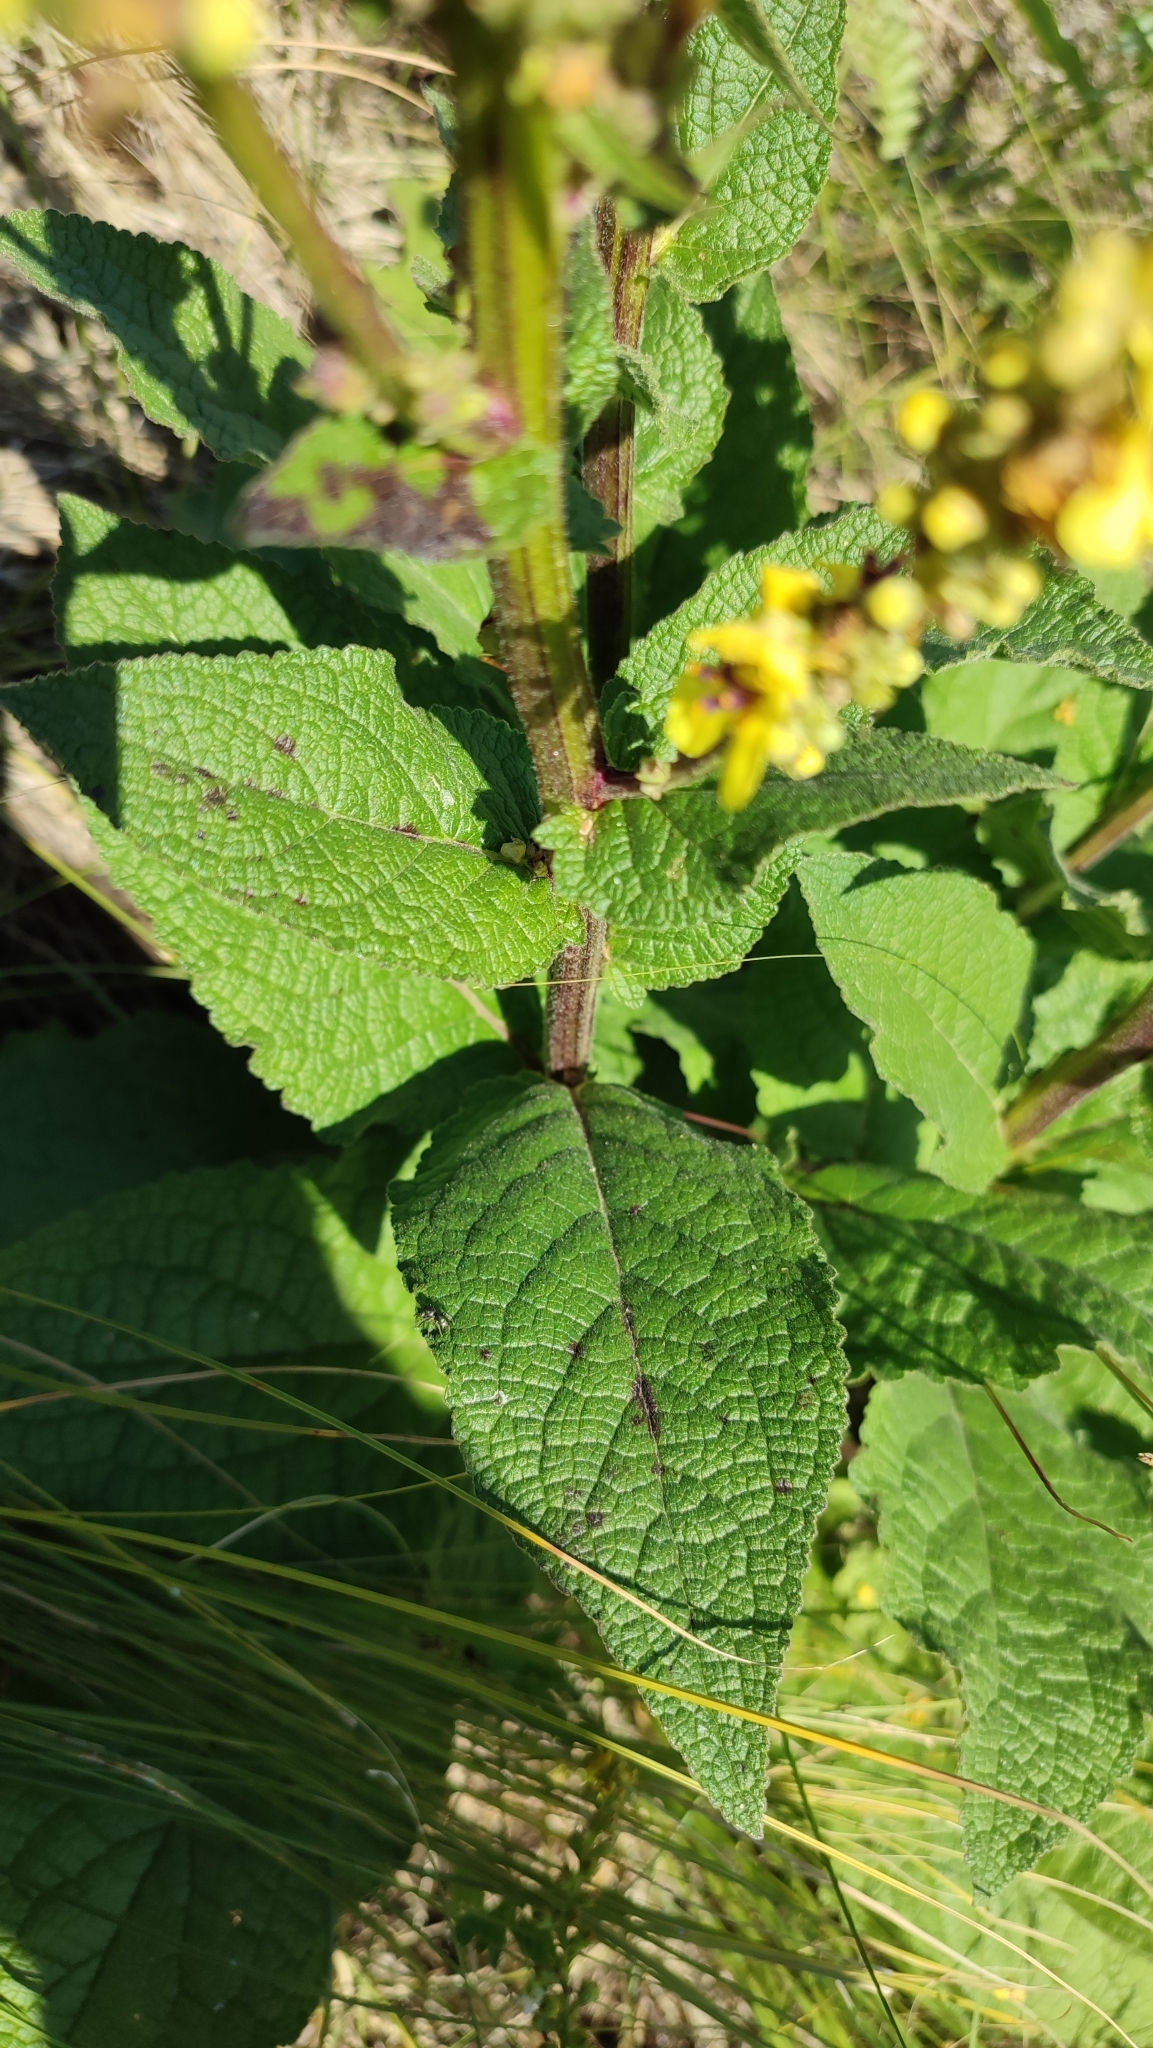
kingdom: Plantae
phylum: Tracheophyta
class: Magnoliopsida
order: Lamiales
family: Scrophulariaceae
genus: Verbascum
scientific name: Verbascum nigrum
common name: Dark mullein
